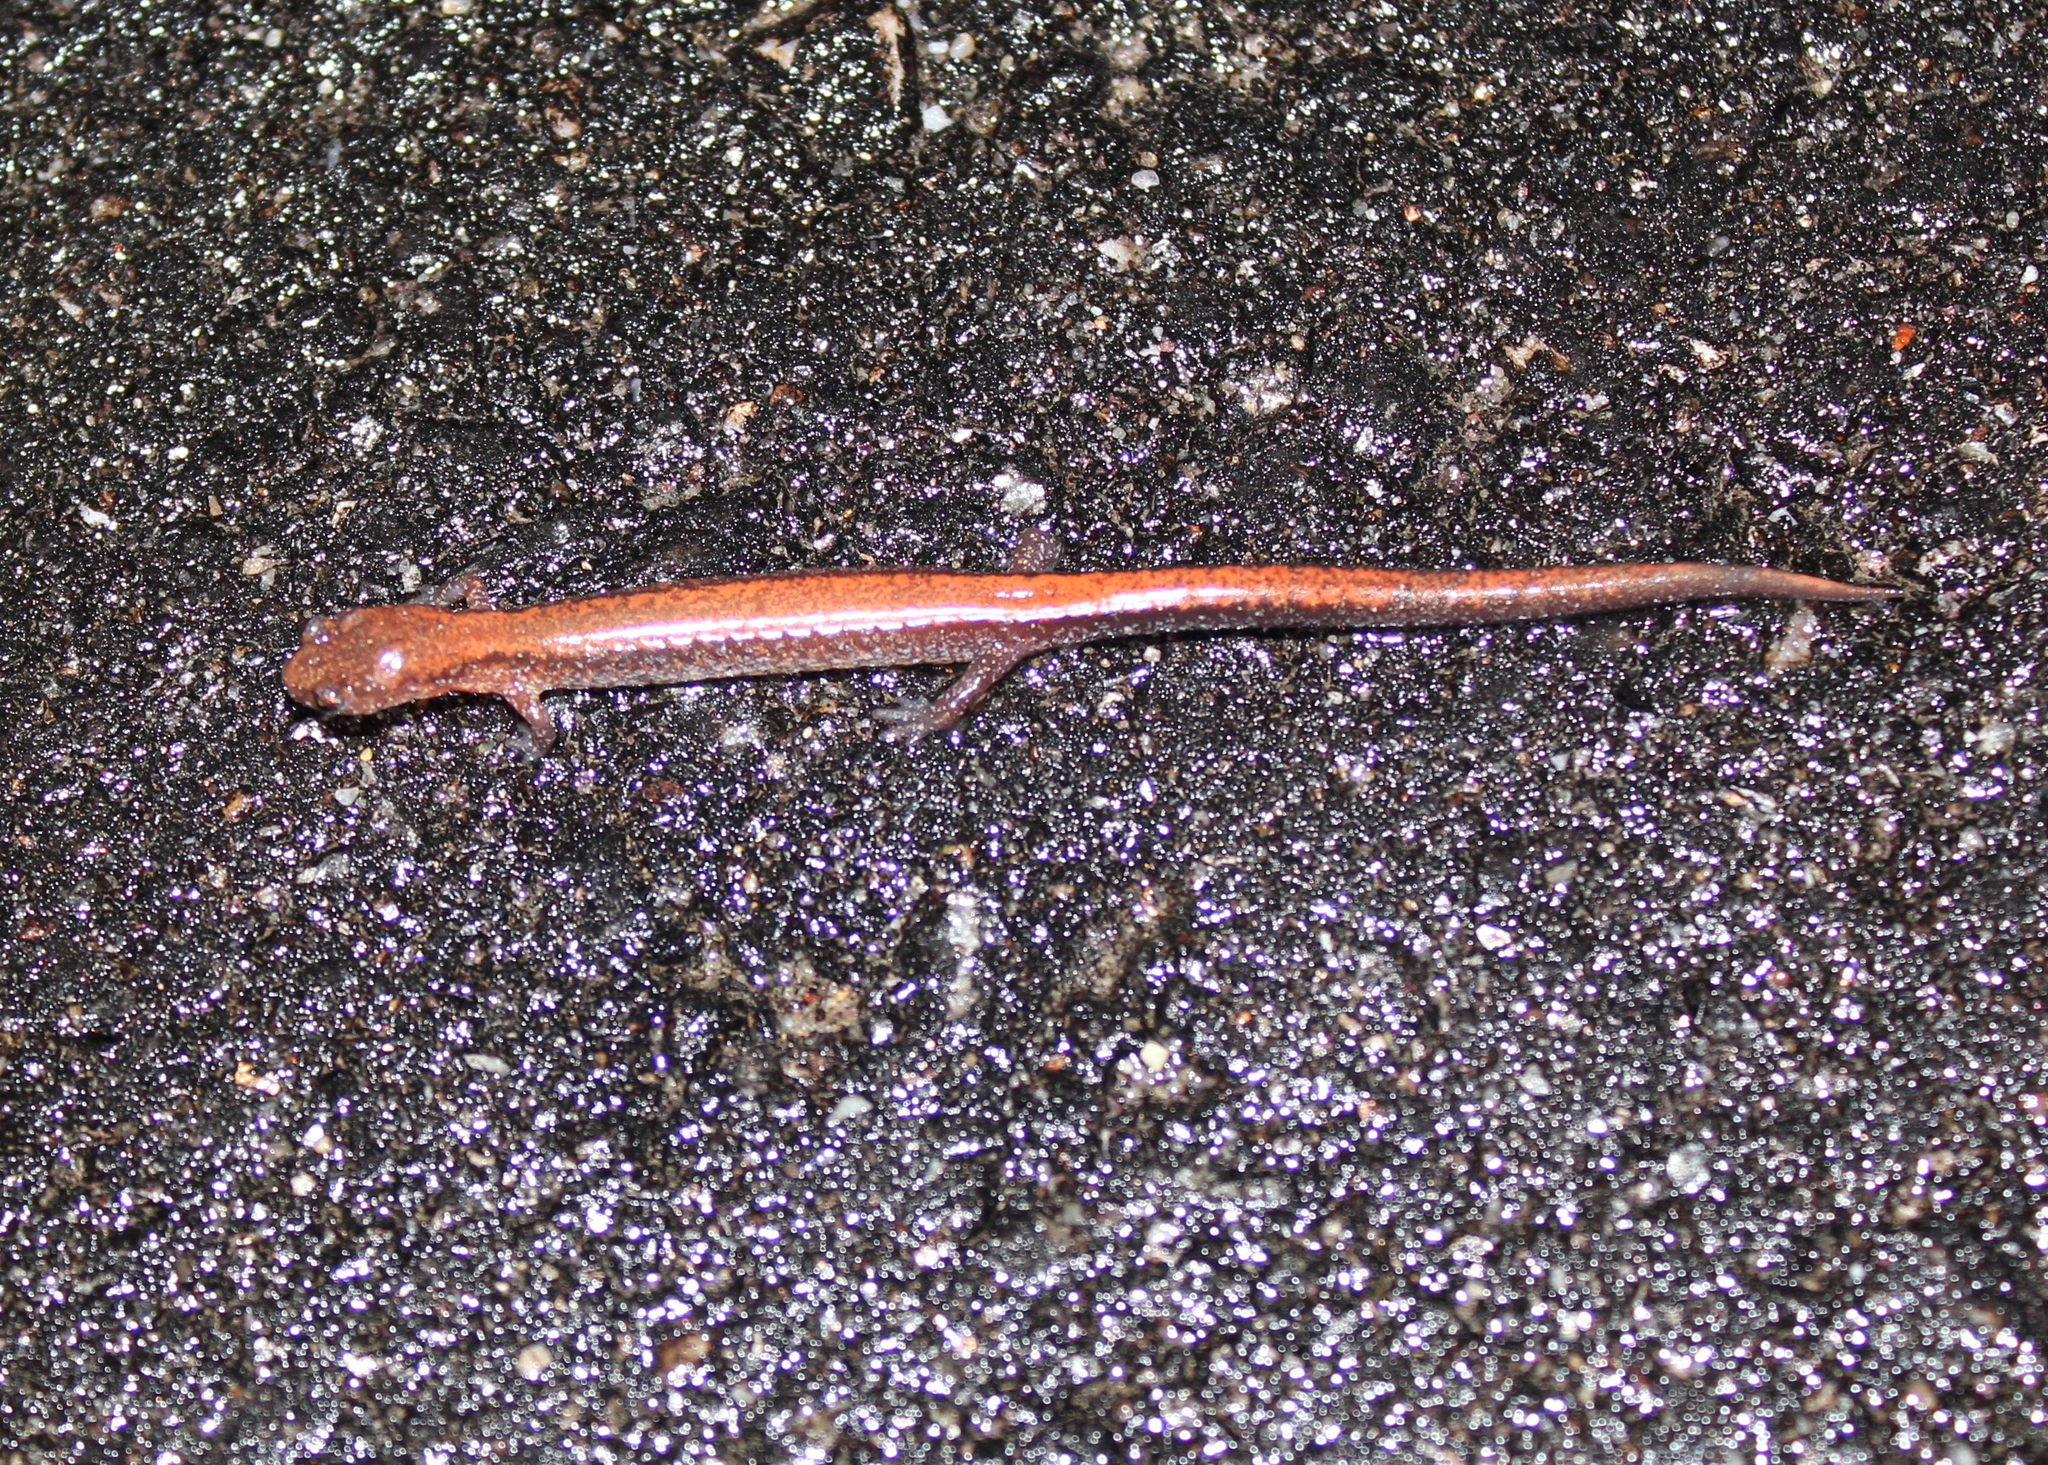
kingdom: Animalia
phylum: Chordata
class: Amphibia
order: Caudata
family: Plethodontidae
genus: Plethodon
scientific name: Plethodon cinereus
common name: Redback salamander
